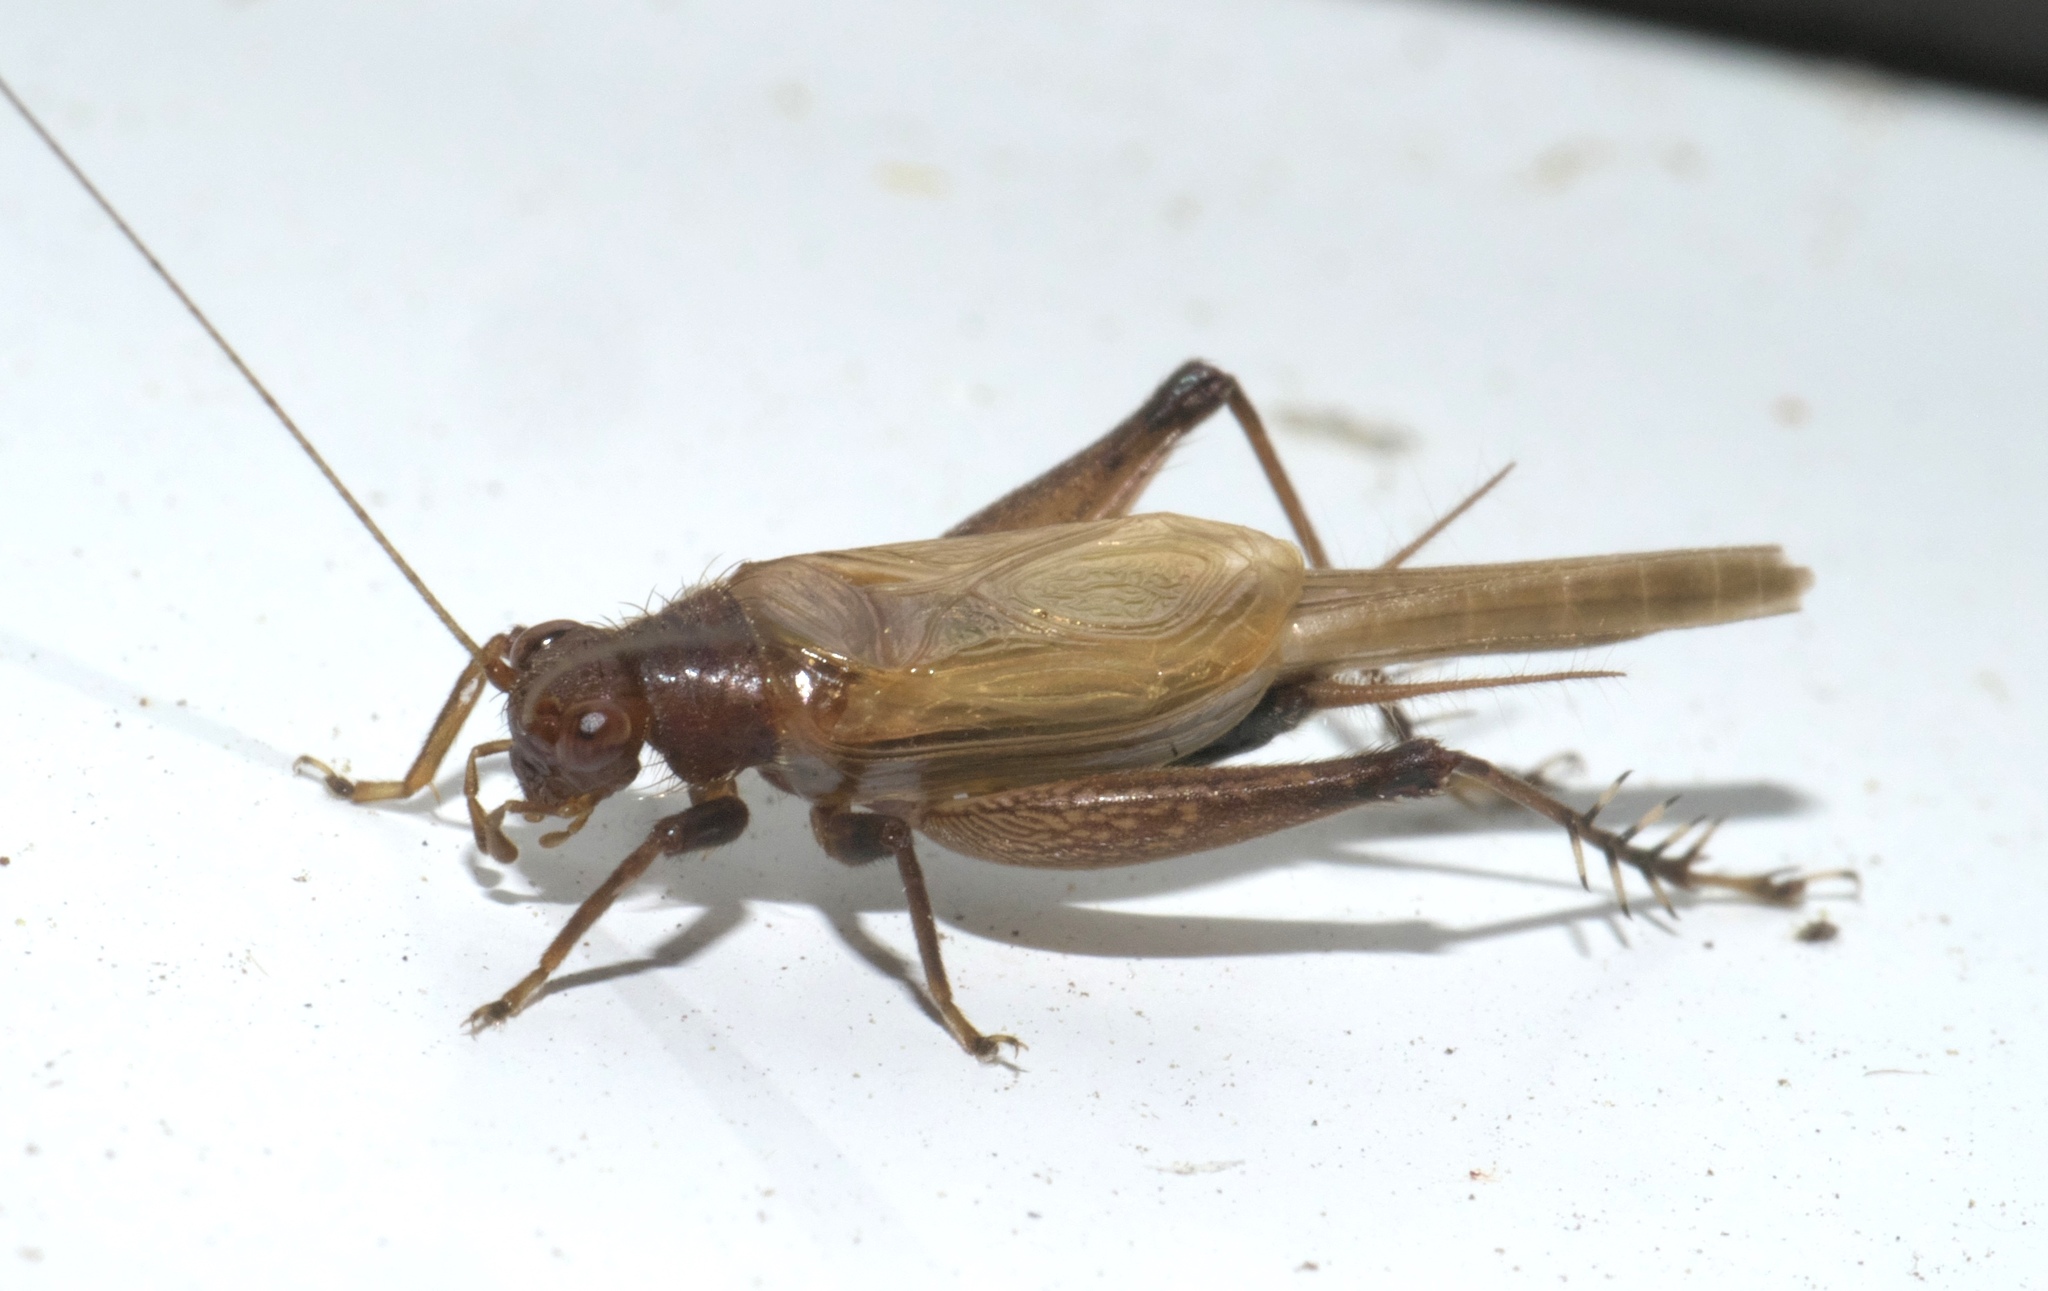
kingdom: Animalia
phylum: Arthropoda
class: Insecta
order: Orthoptera
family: Trigonidiidae
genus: Anaxipha
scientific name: Anaxipha vernalis
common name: Spring trig
